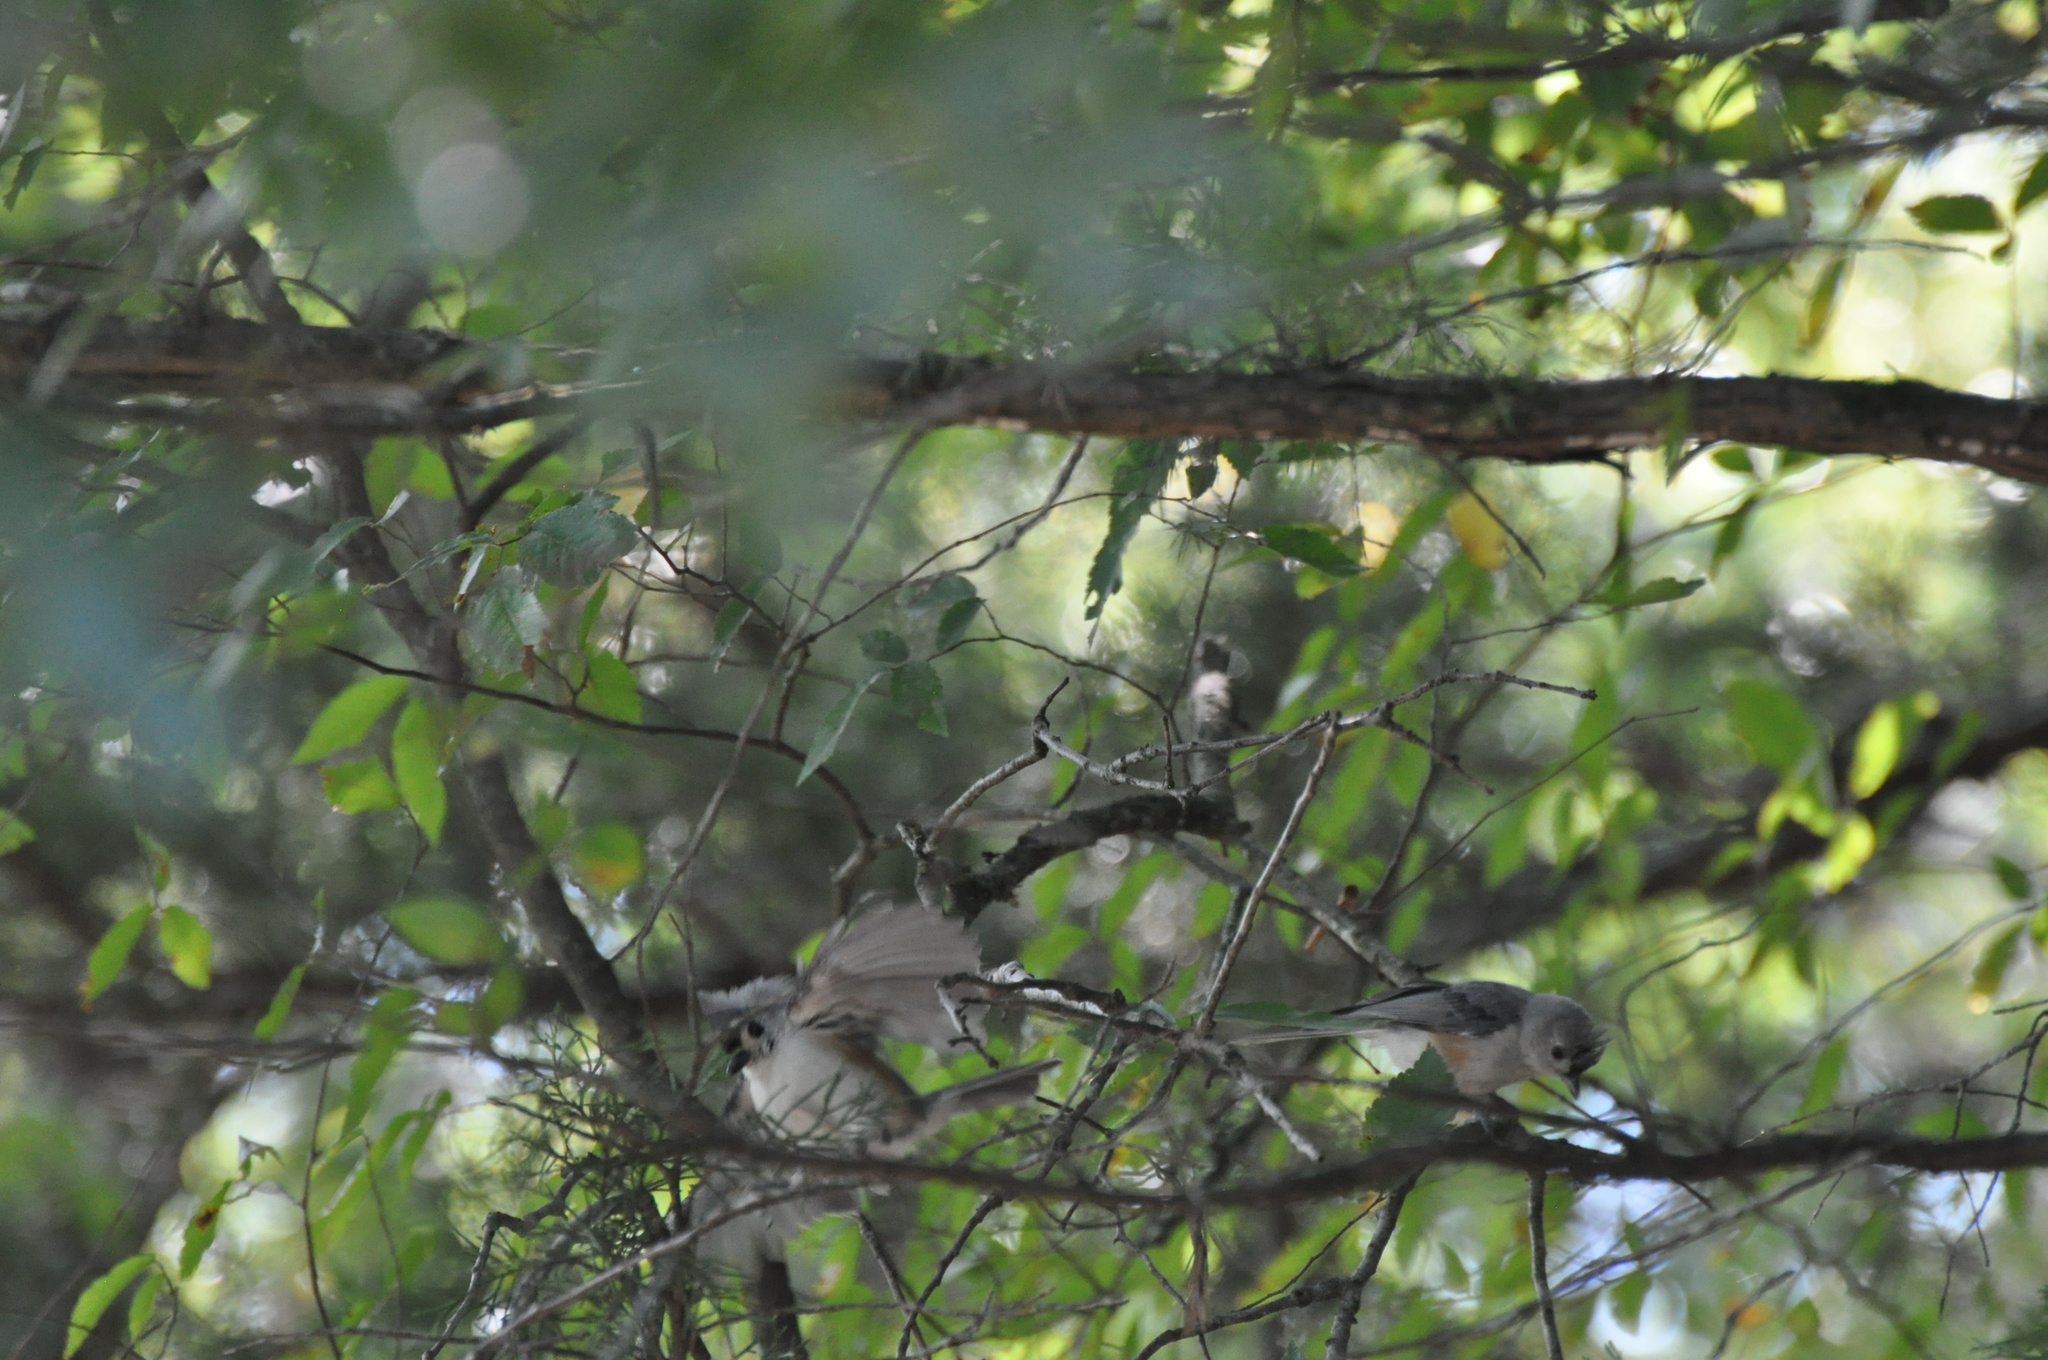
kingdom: Animalia
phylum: Chordata
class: Aves
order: Passeriformes
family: Paridae
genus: Baeolophus
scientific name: Baeolophus bicolor
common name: Tufted titmouse
